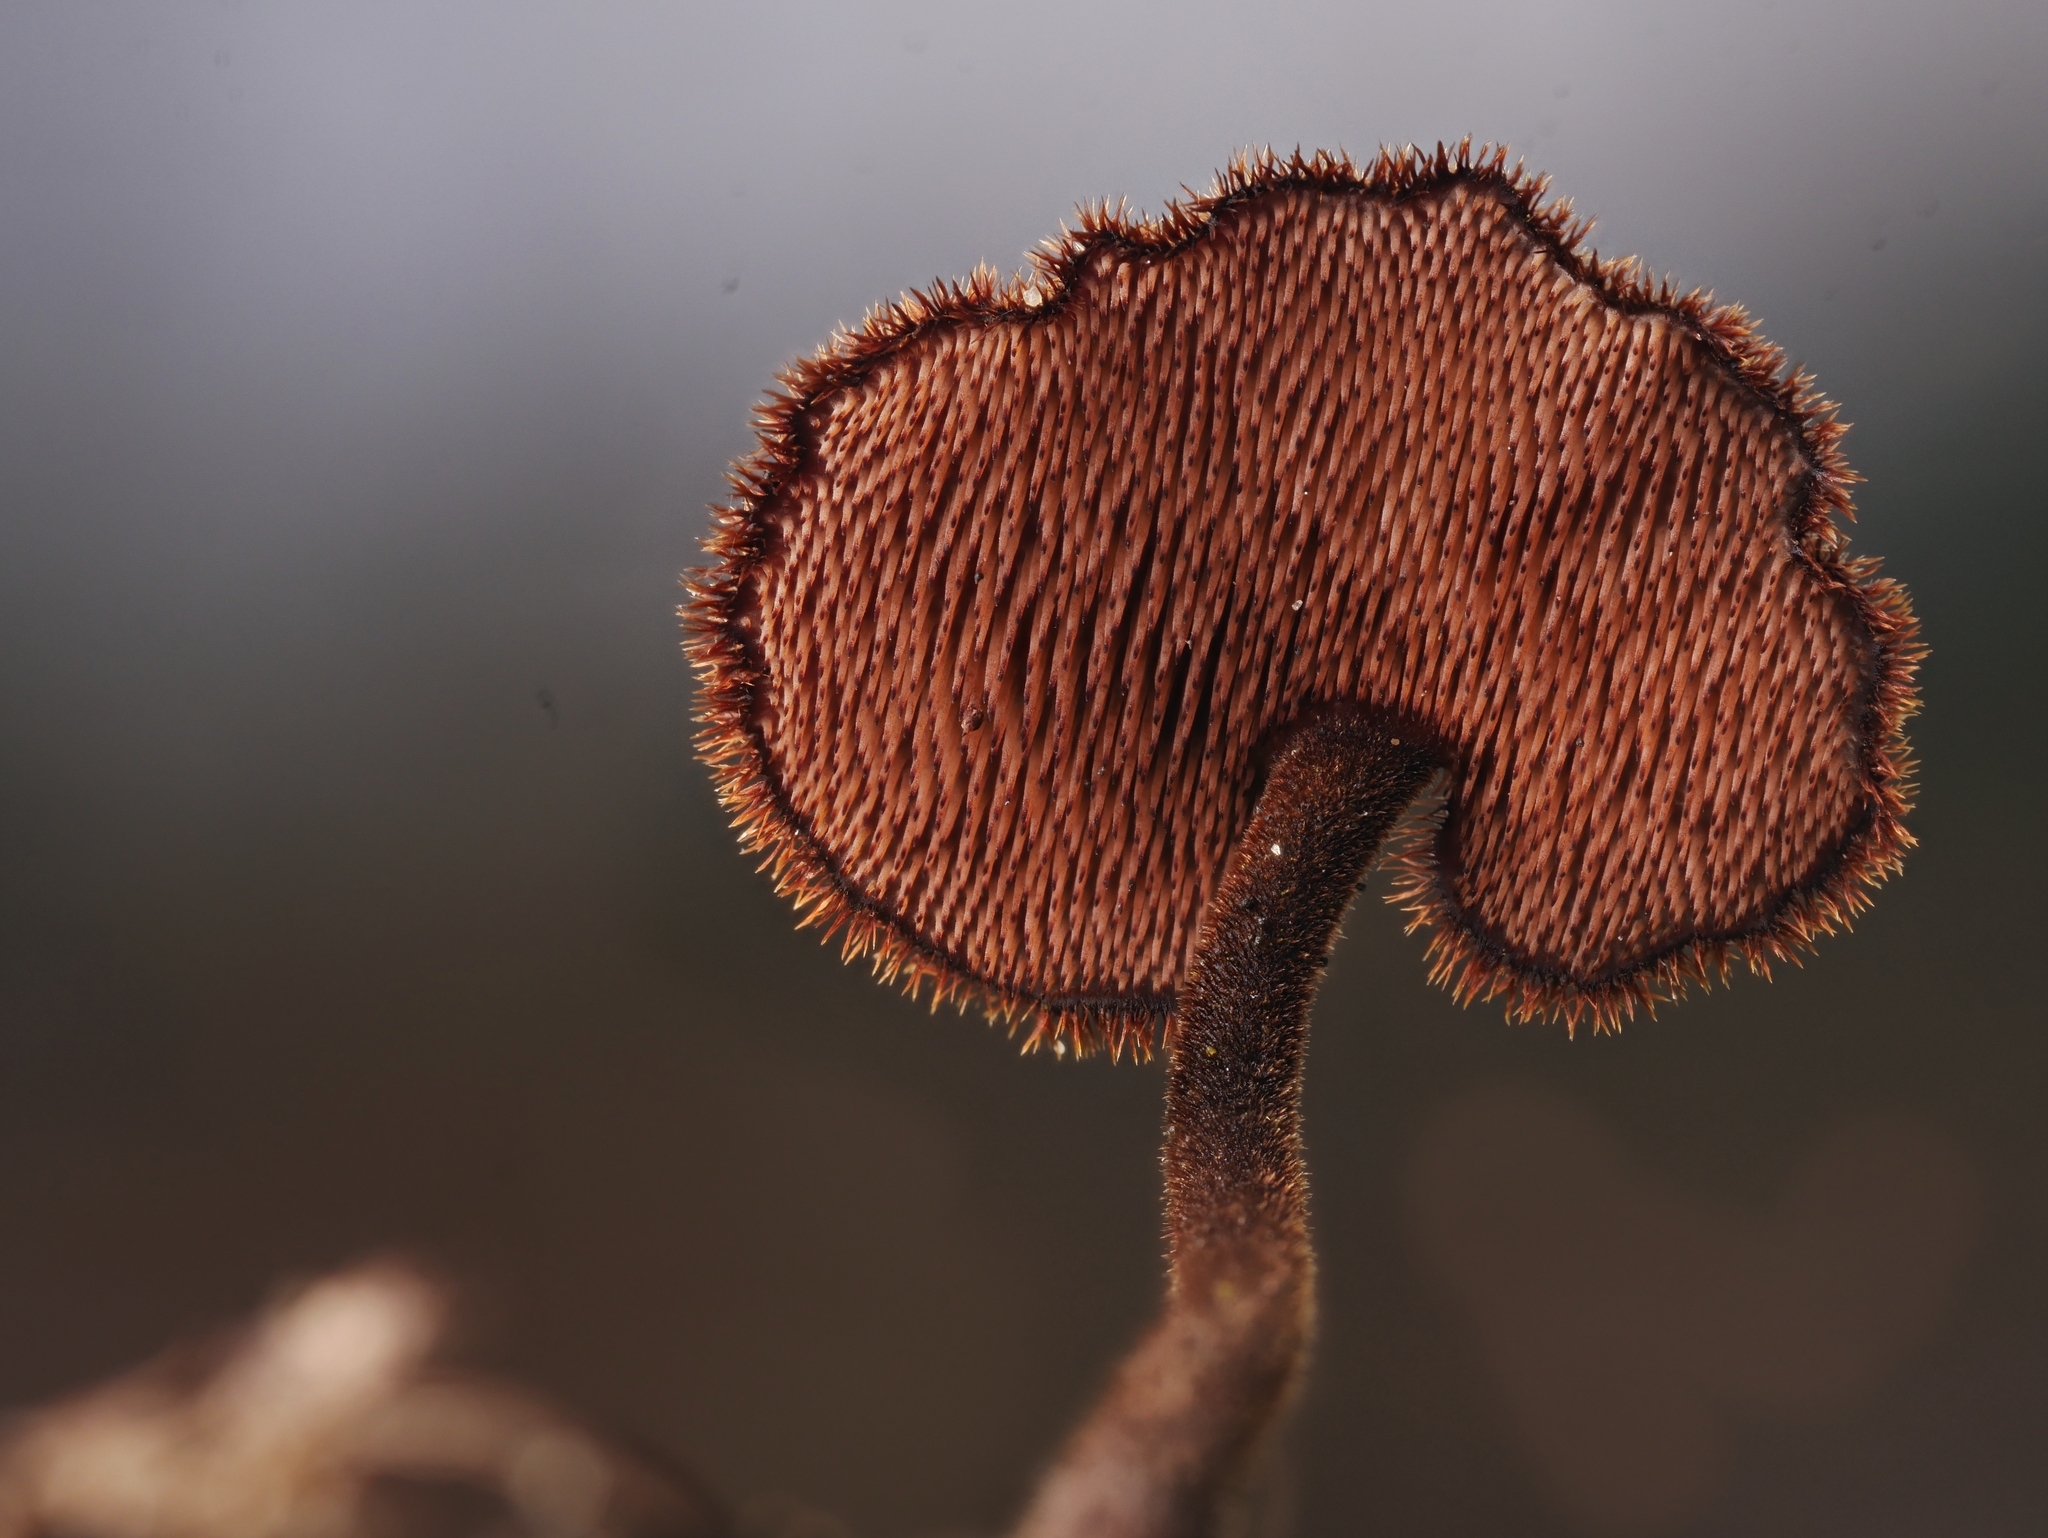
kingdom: Fungi
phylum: Basidiomycota
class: Agaricomycetes
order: Russulales
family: Auriscalpiaceae
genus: Auriscalpium
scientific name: Auriscalpium vulgare
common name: Earpick fungus
